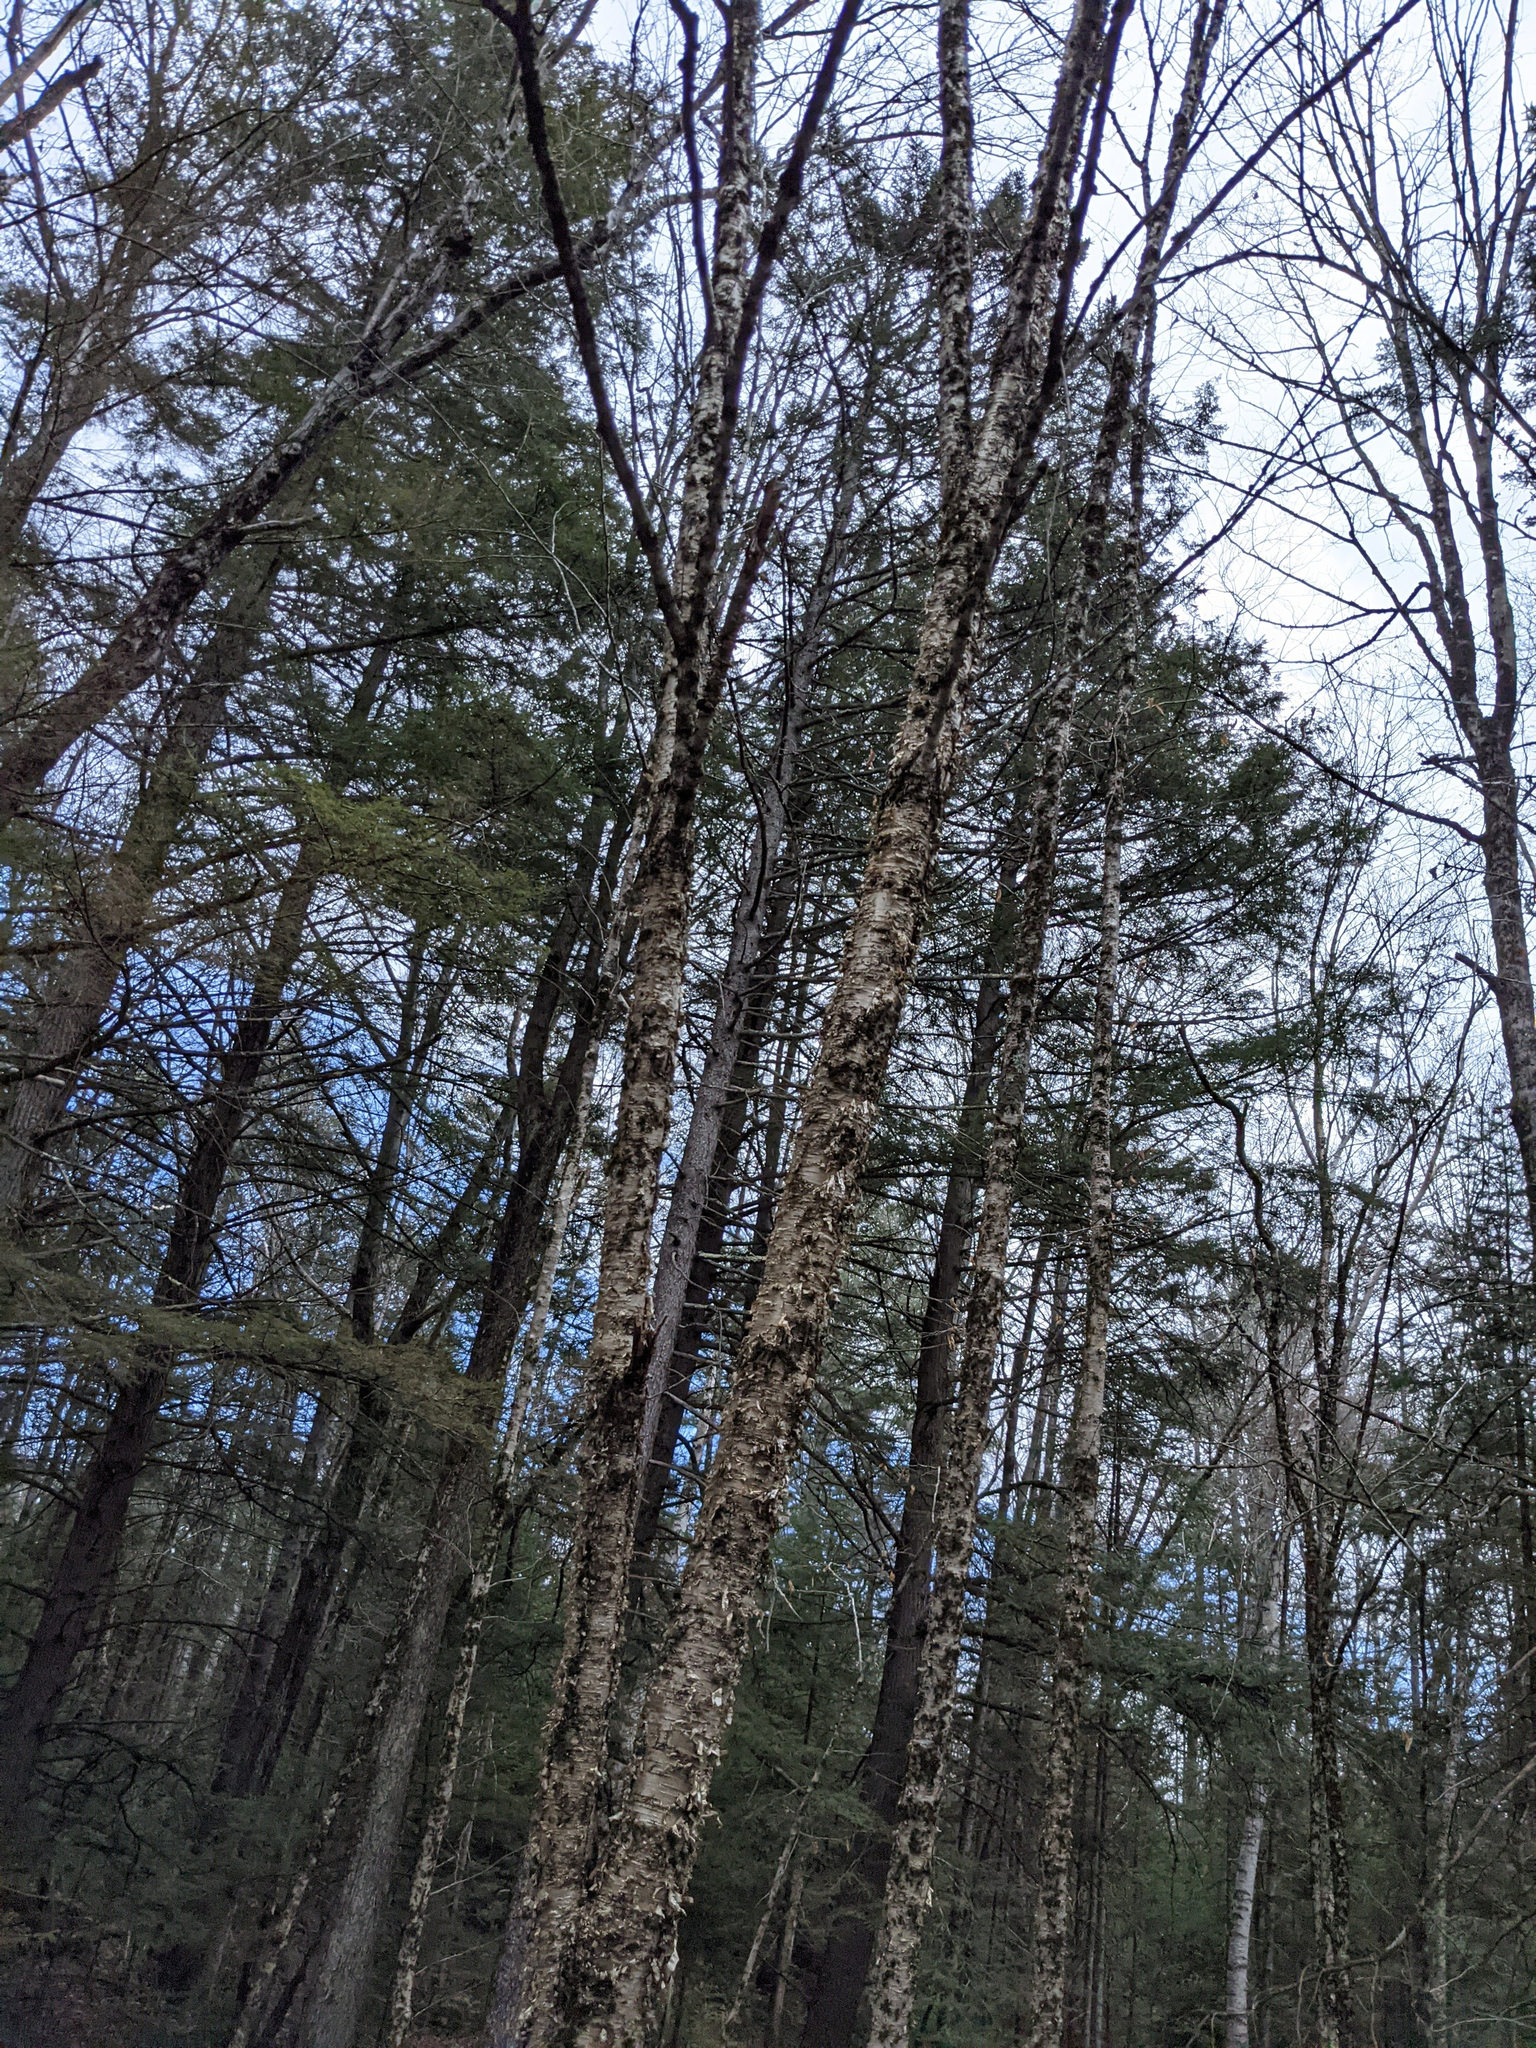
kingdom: Plantae
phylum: Tracheophyta
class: Magnoliopsida
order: Fagales
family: Betulaceae
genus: Betula
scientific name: Betula alleghaniensis
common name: Yellow birch
